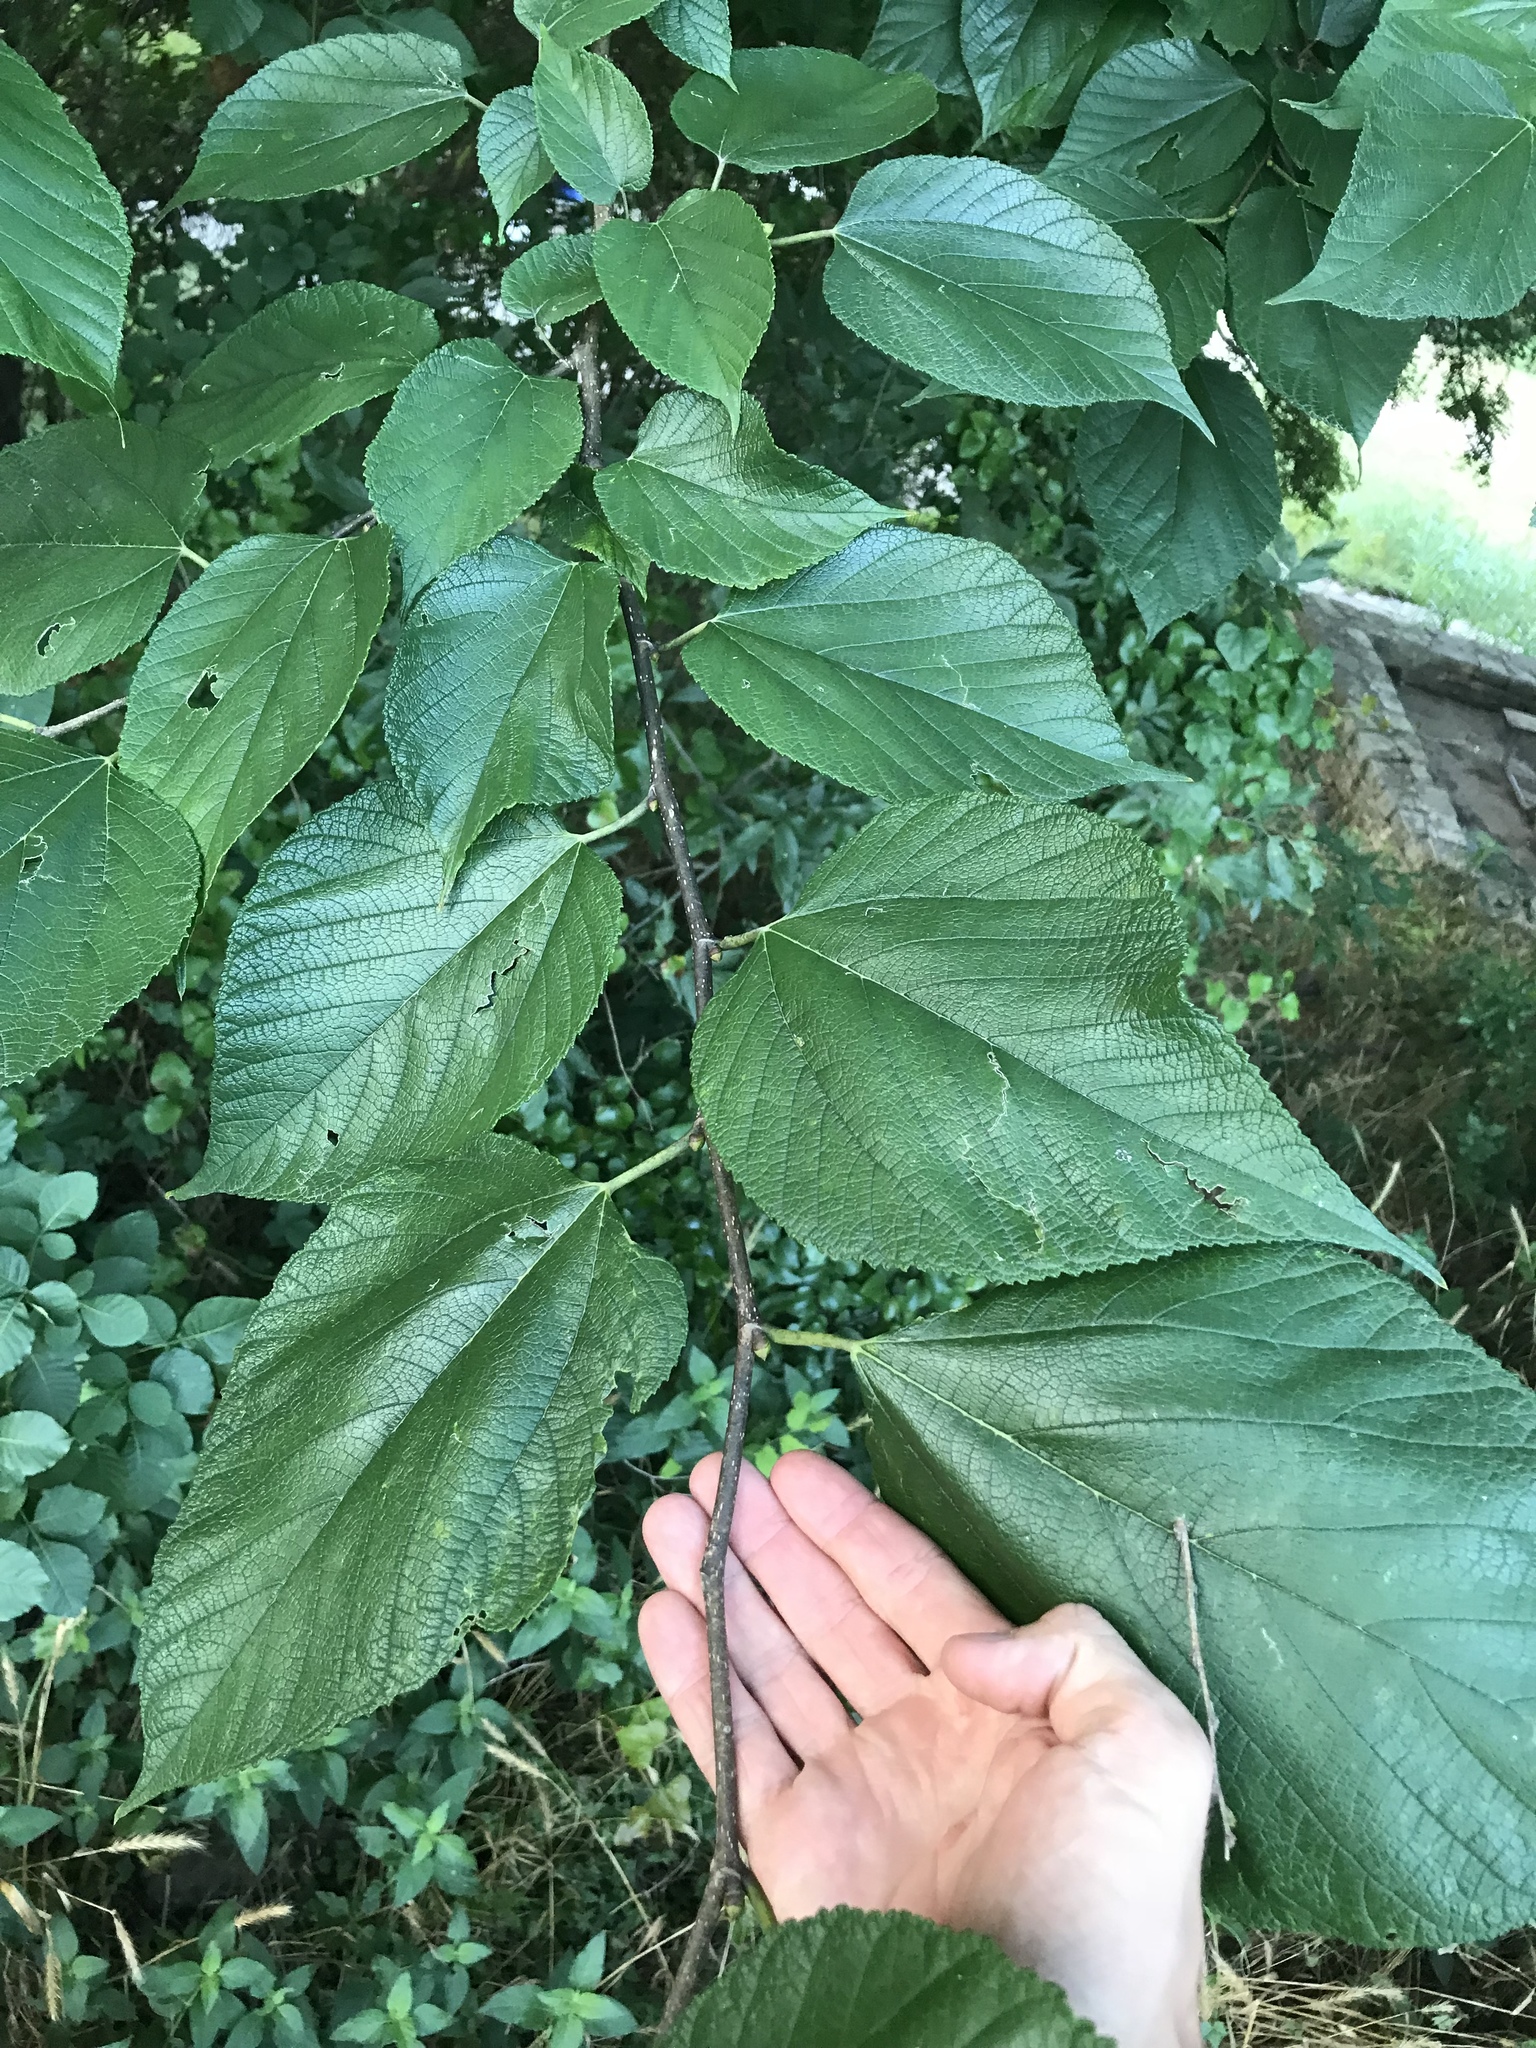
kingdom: Plantae
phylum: Tracheophyta
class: Magnoliopsida
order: Rosales
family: Moraceae
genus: Morus
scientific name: Morus rubra
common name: Red mulberry
